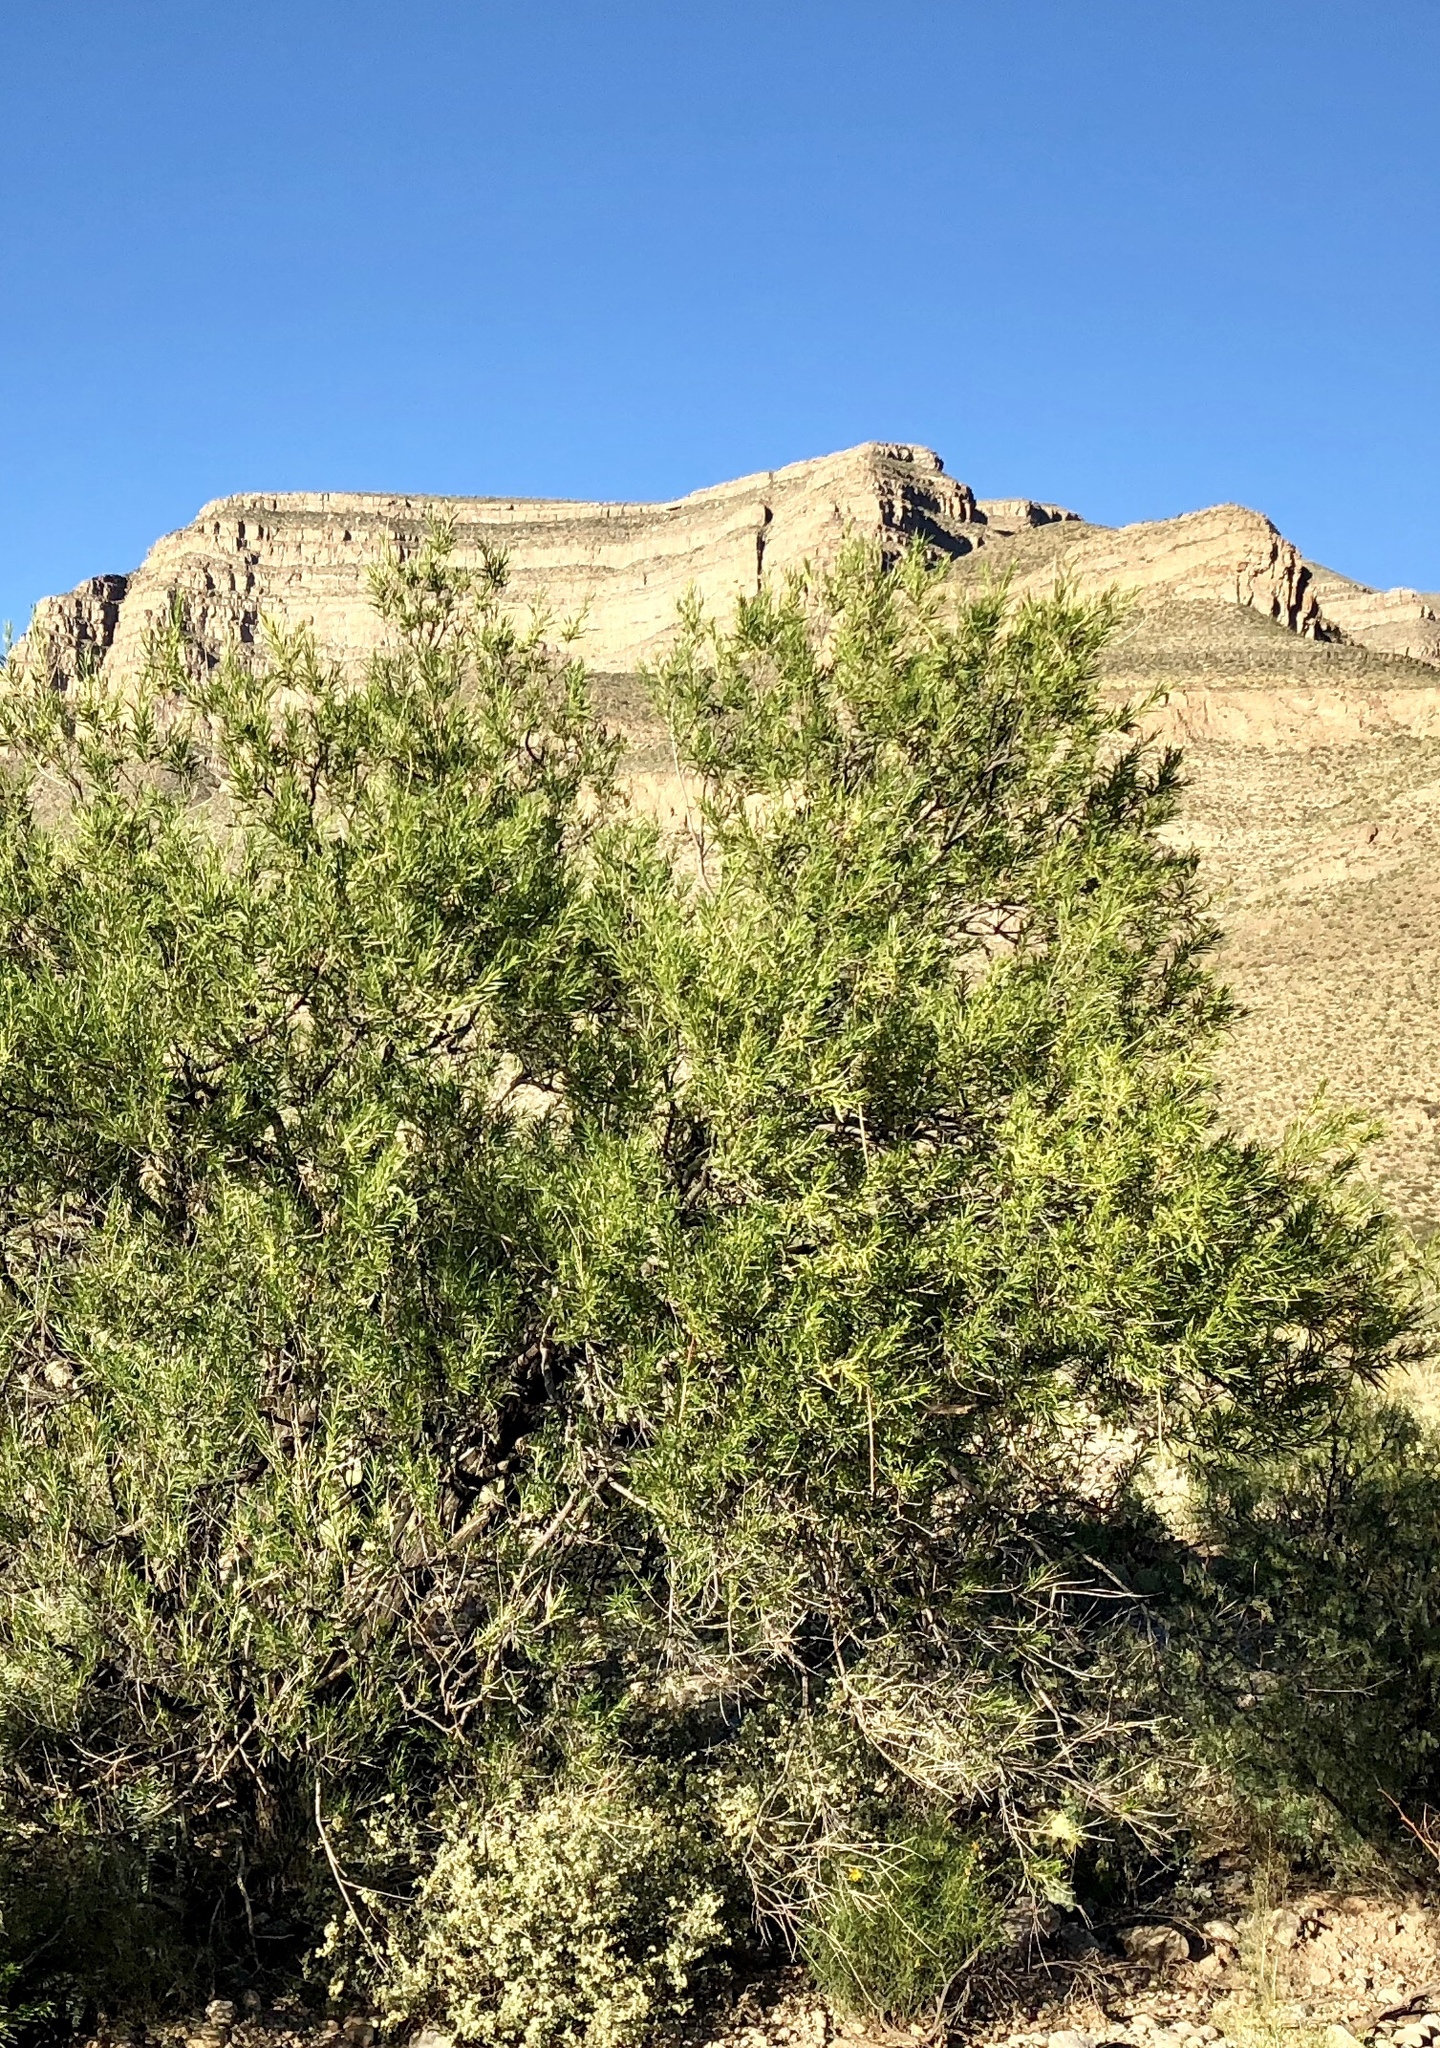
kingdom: Plantae
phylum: Tracheophyta
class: Magnoliopsida
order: Lamiales
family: Bignoniaceae
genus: Chilopsis
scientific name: Chilopsis linearis
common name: Desert-willow
